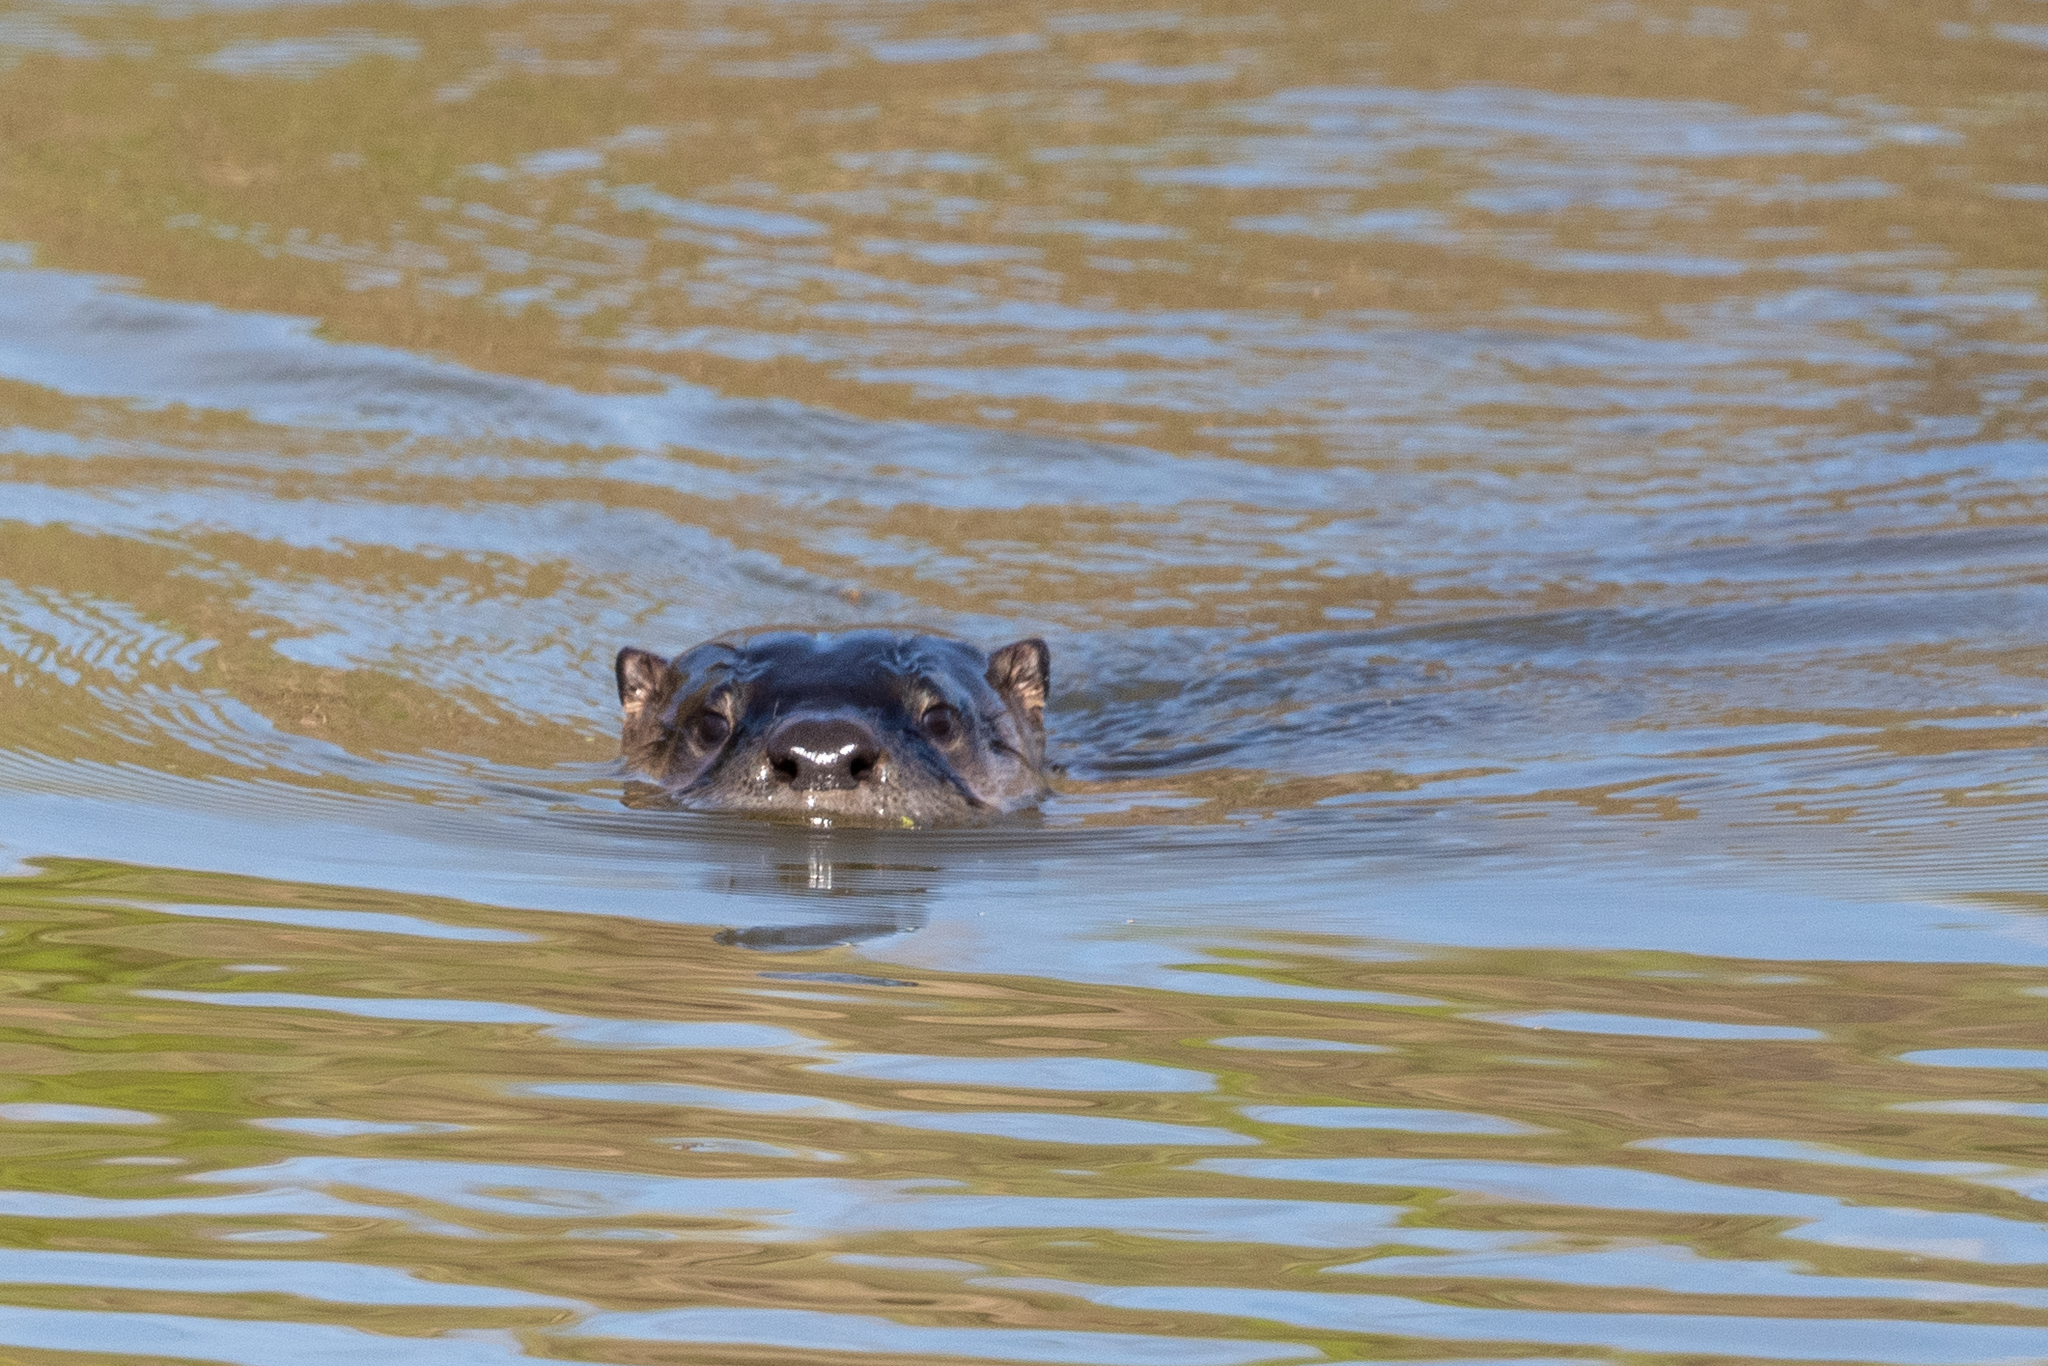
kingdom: Animalia
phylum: Chordata
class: Mammalia
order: Carnivora
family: Mustelidae
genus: Lontra
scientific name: Lontra canadensis
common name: North american river otter
